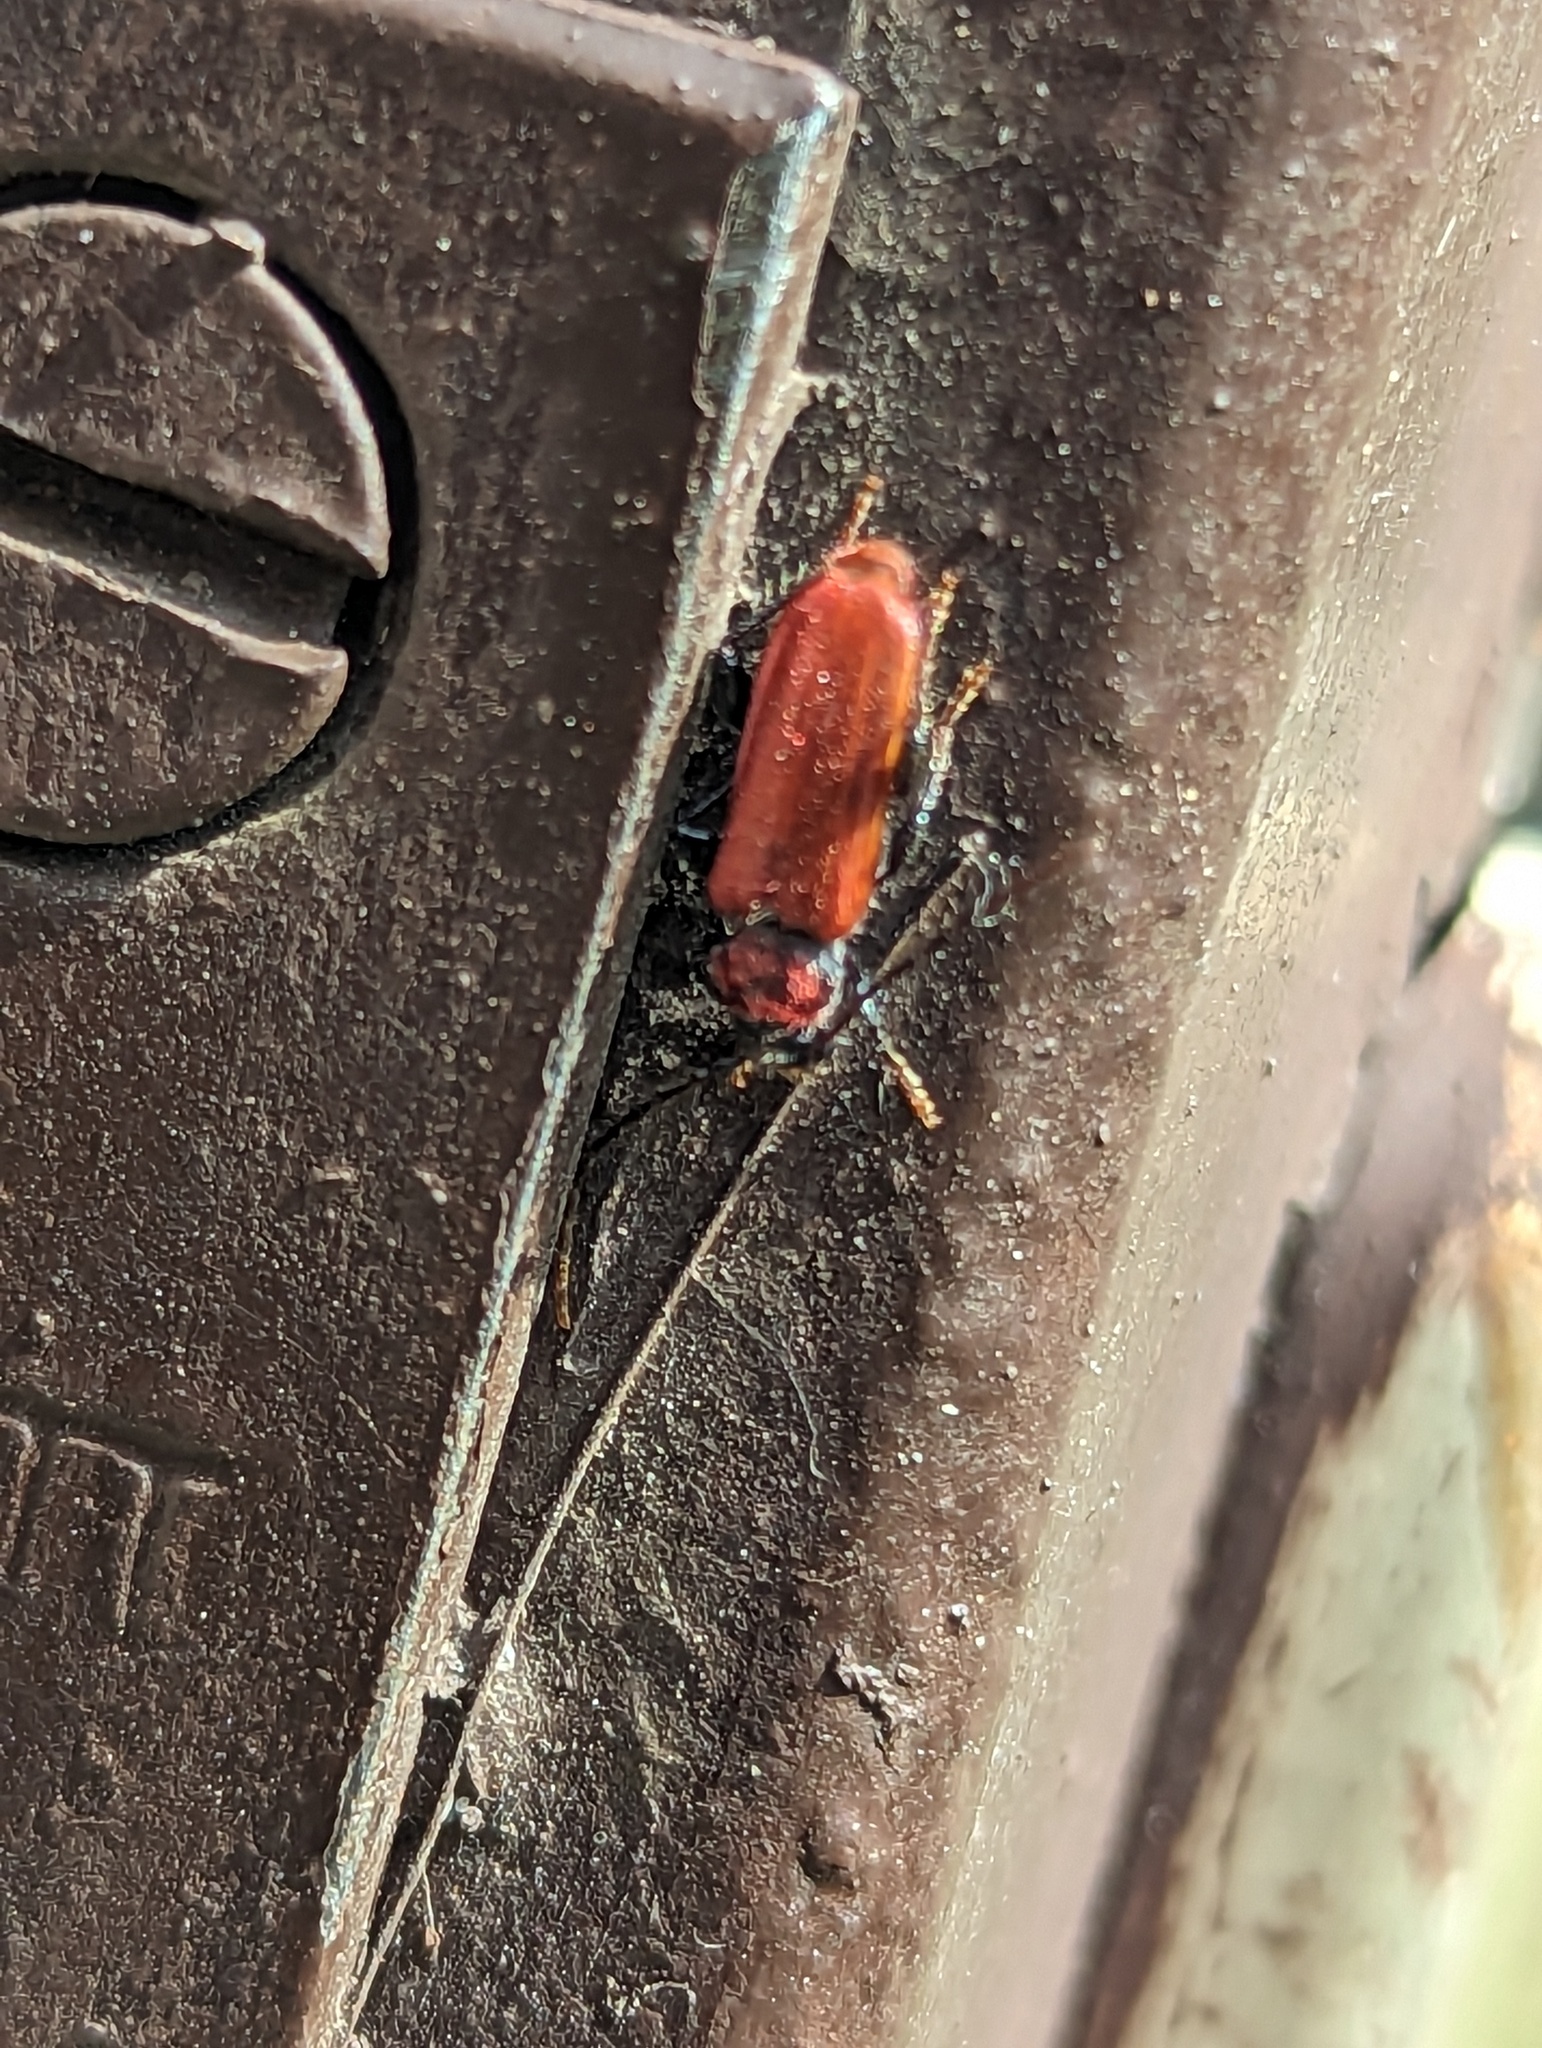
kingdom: Animalia
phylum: Arthropoda
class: Insecta
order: Coleoptera
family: Cerambycidae
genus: Pyrrhidium
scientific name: Pyrrhidium sanguineum
